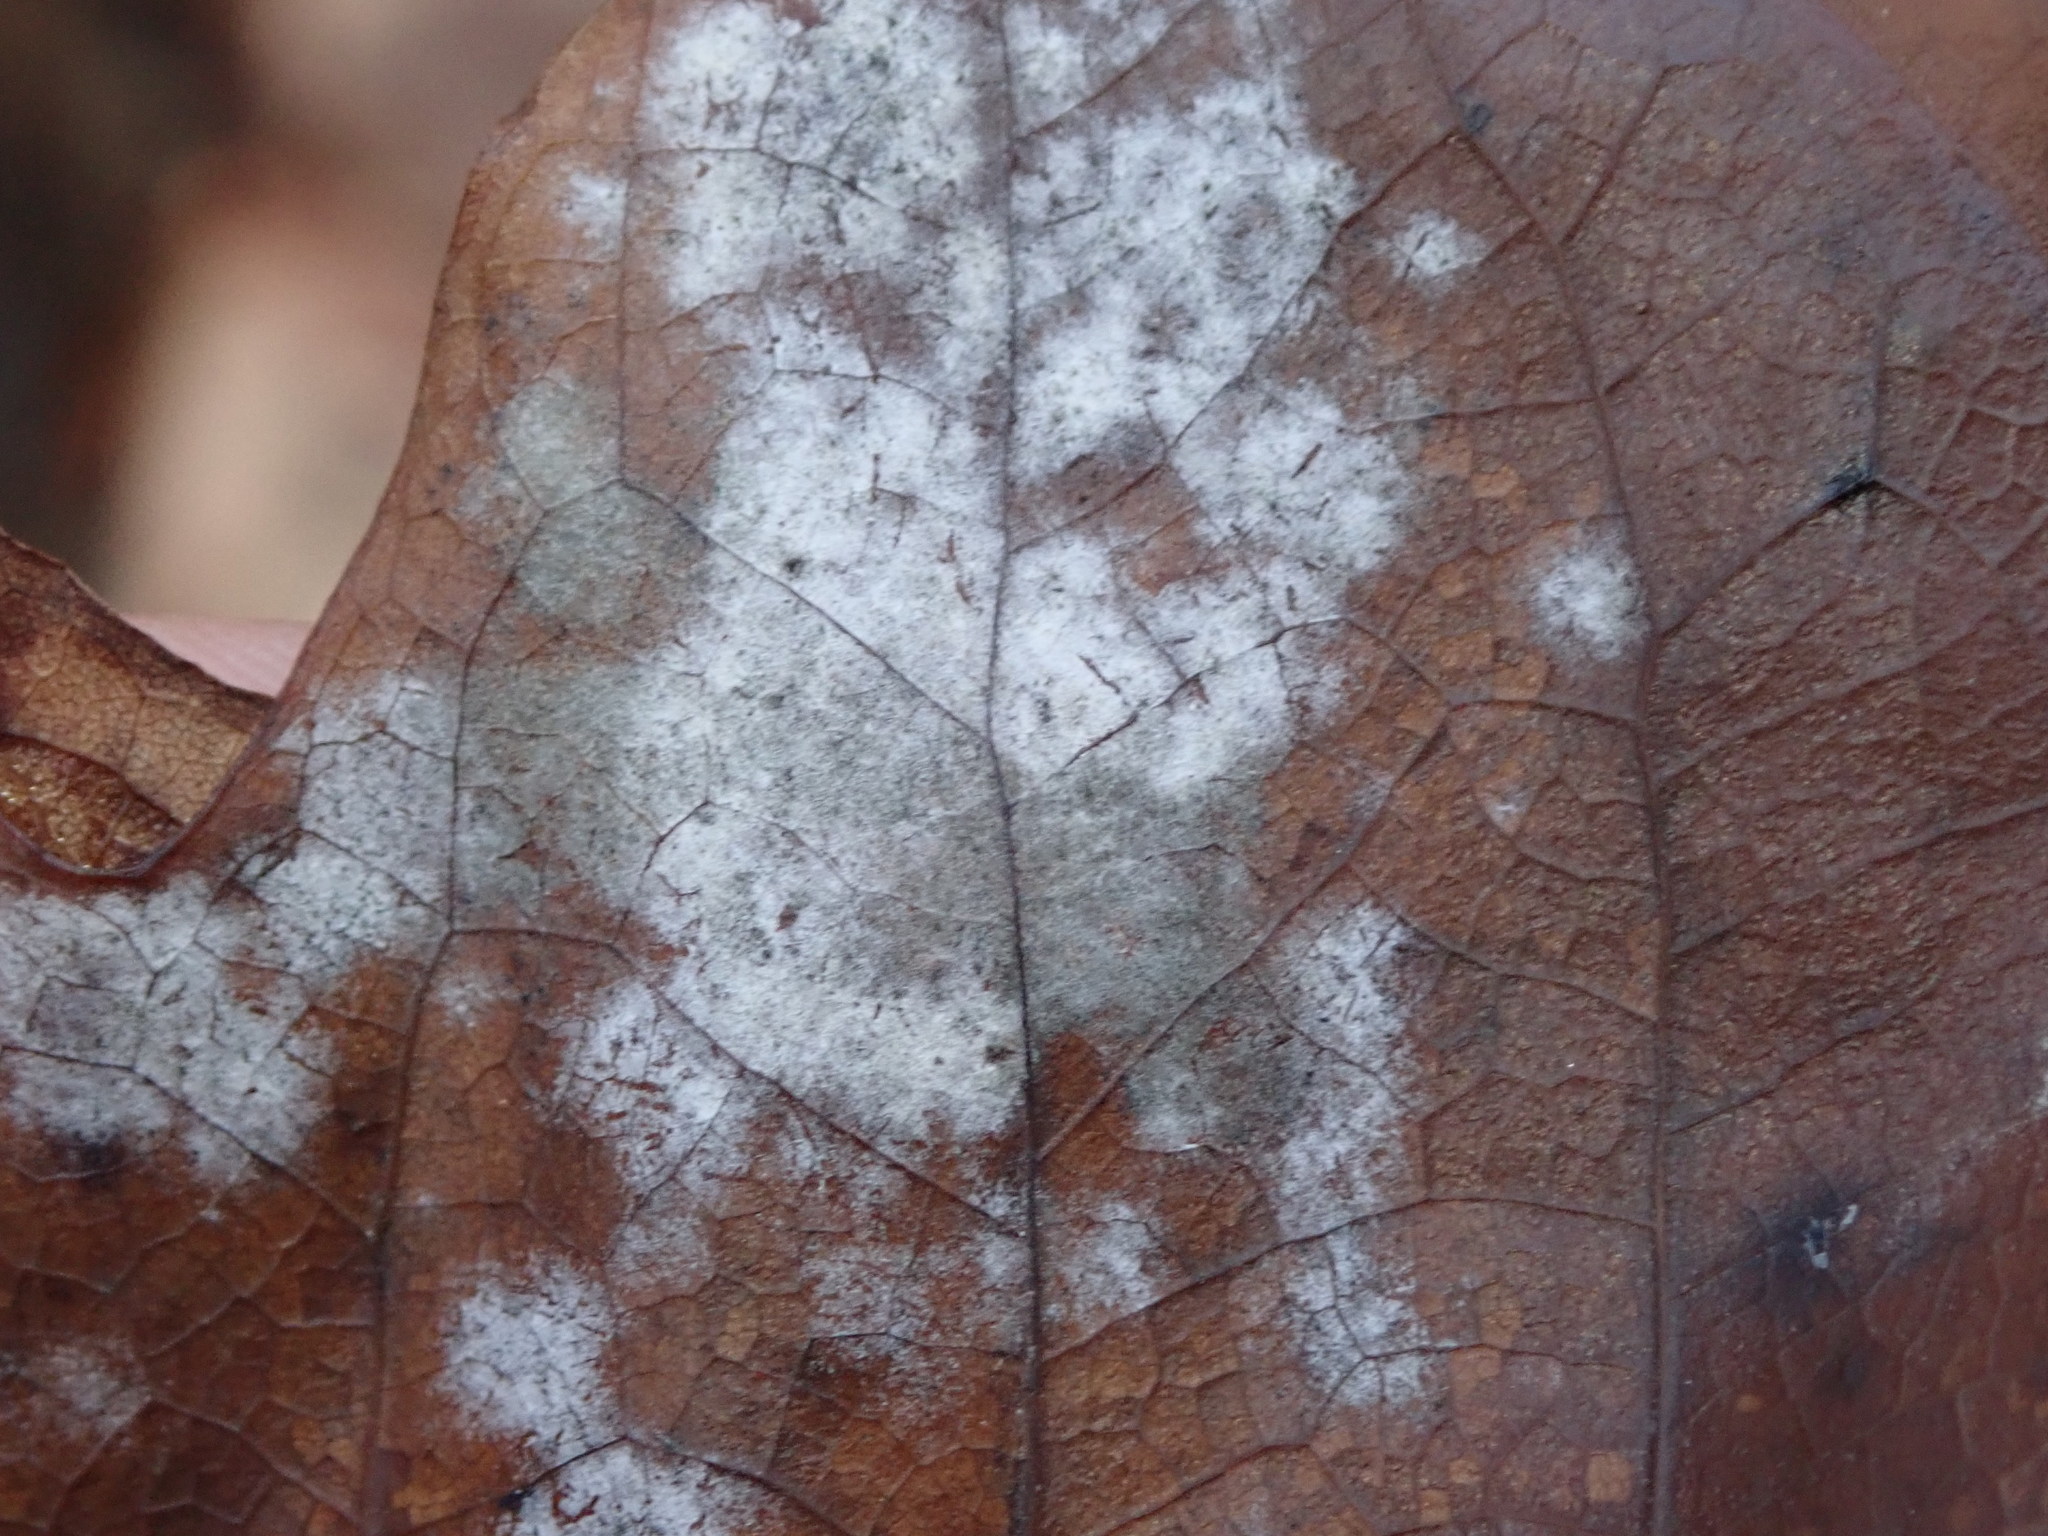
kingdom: Fungi
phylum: Ascomycota
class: Leotiomycetes
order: Helotiales
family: Erysiphaceae
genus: Erysiphe
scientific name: Erysiphe liriodendri
